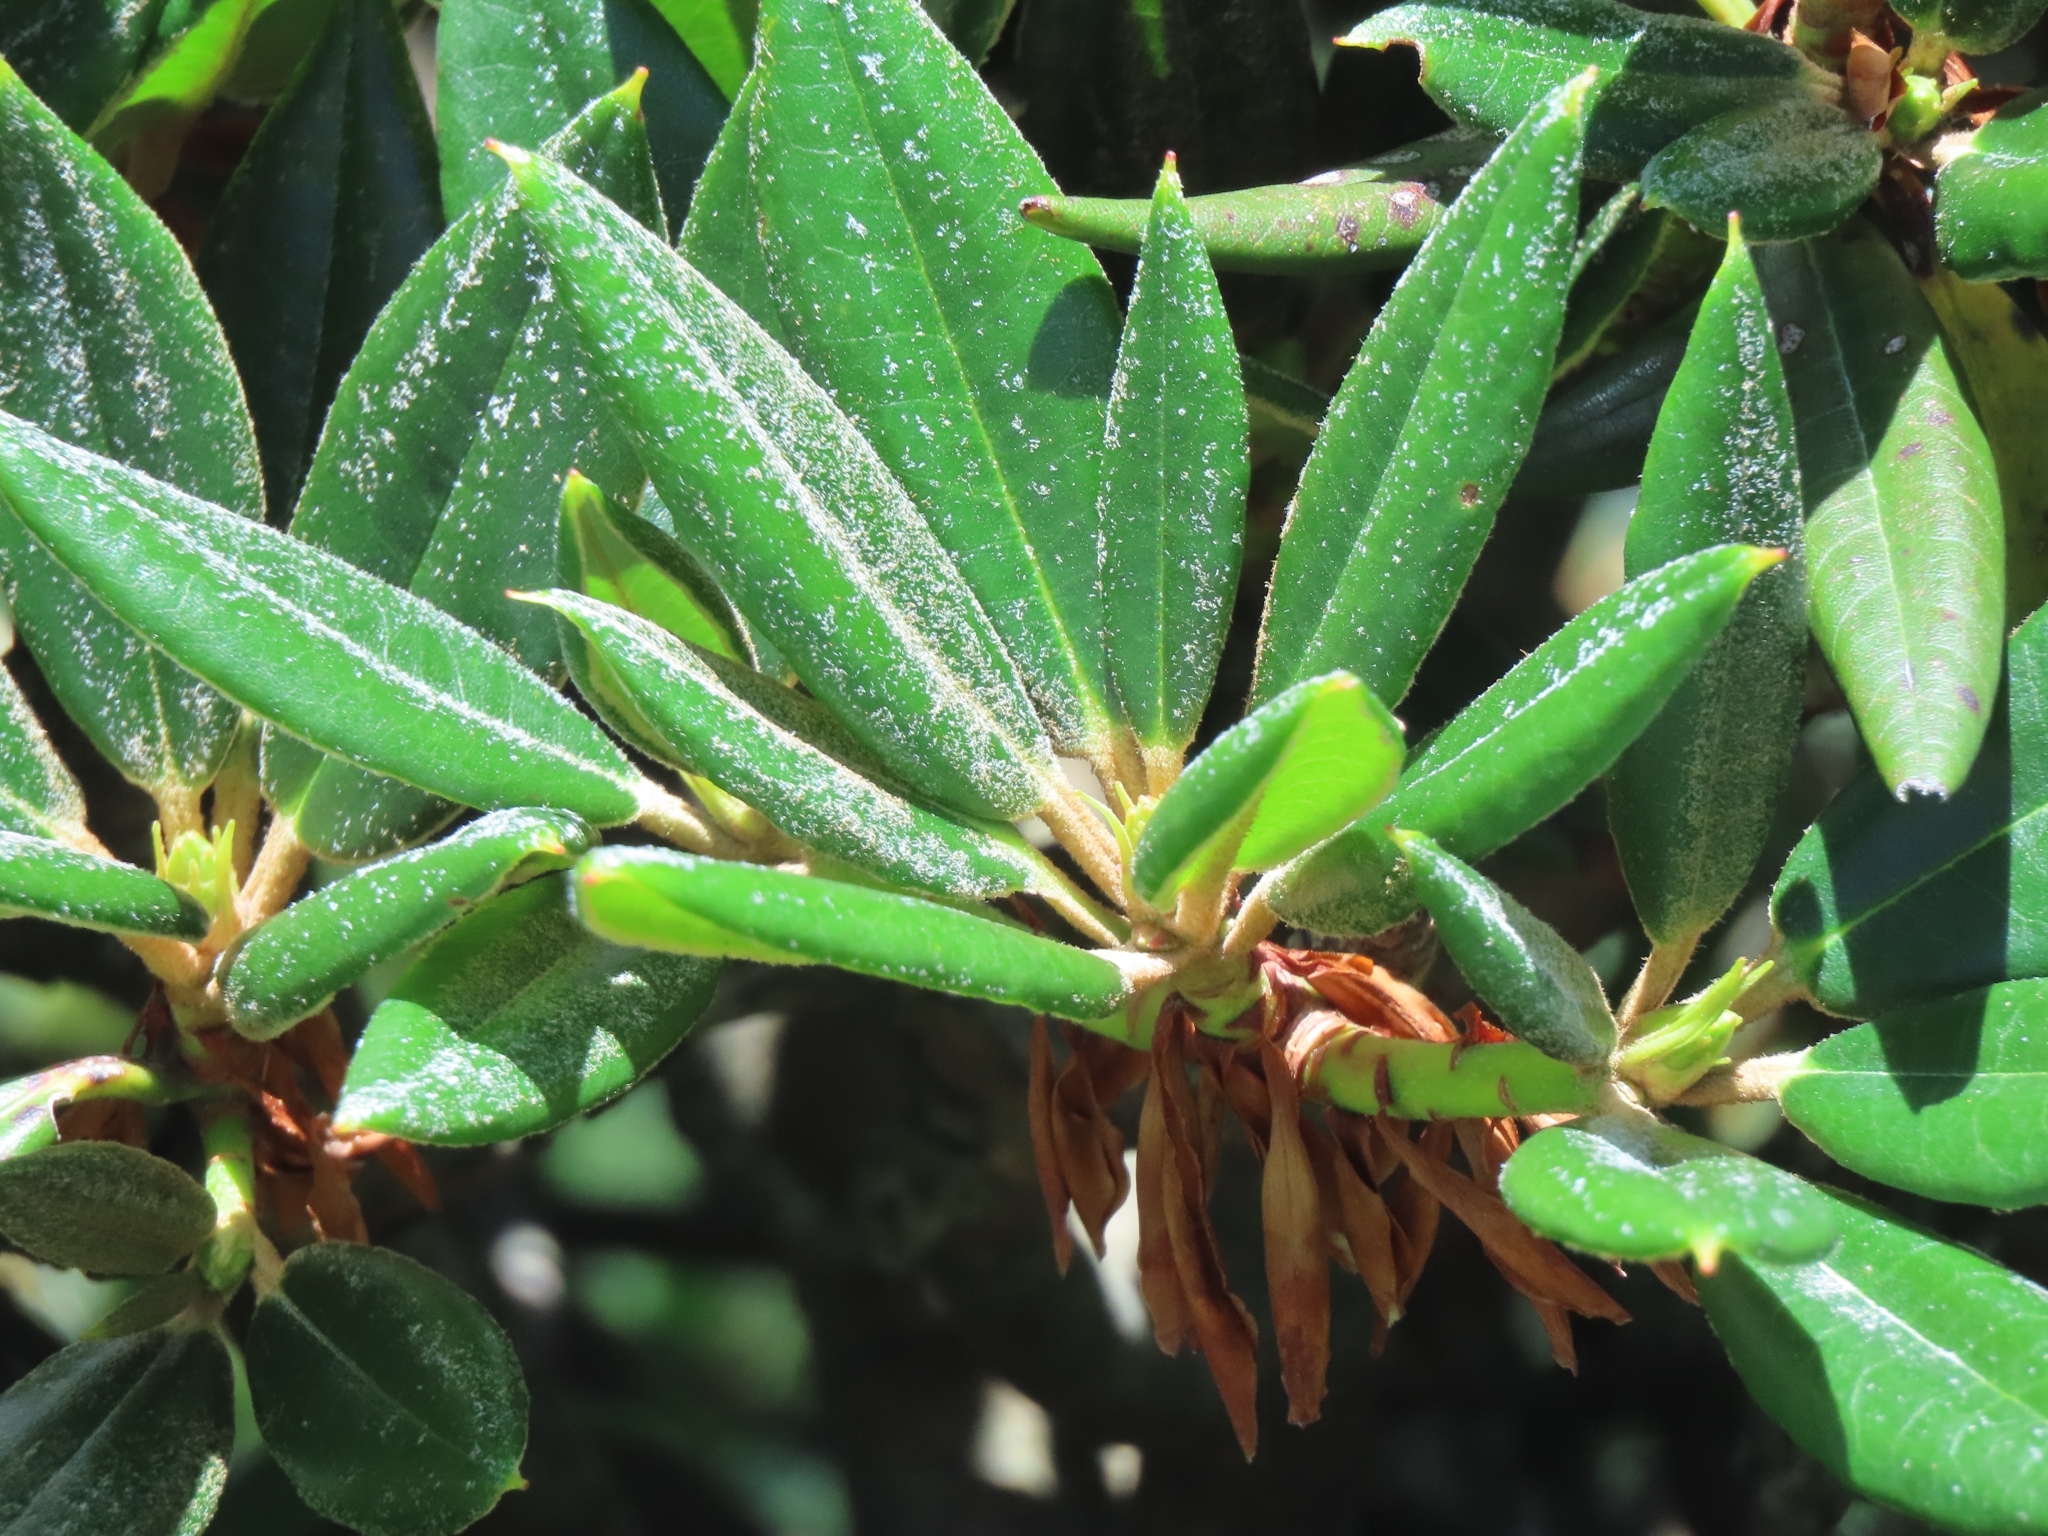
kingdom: Plantae
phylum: Tracheophyta
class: Magnoliopsida
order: Ericales
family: Ericaceae
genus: Rhododendron
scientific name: Rhododendron pseudochrysanthum
